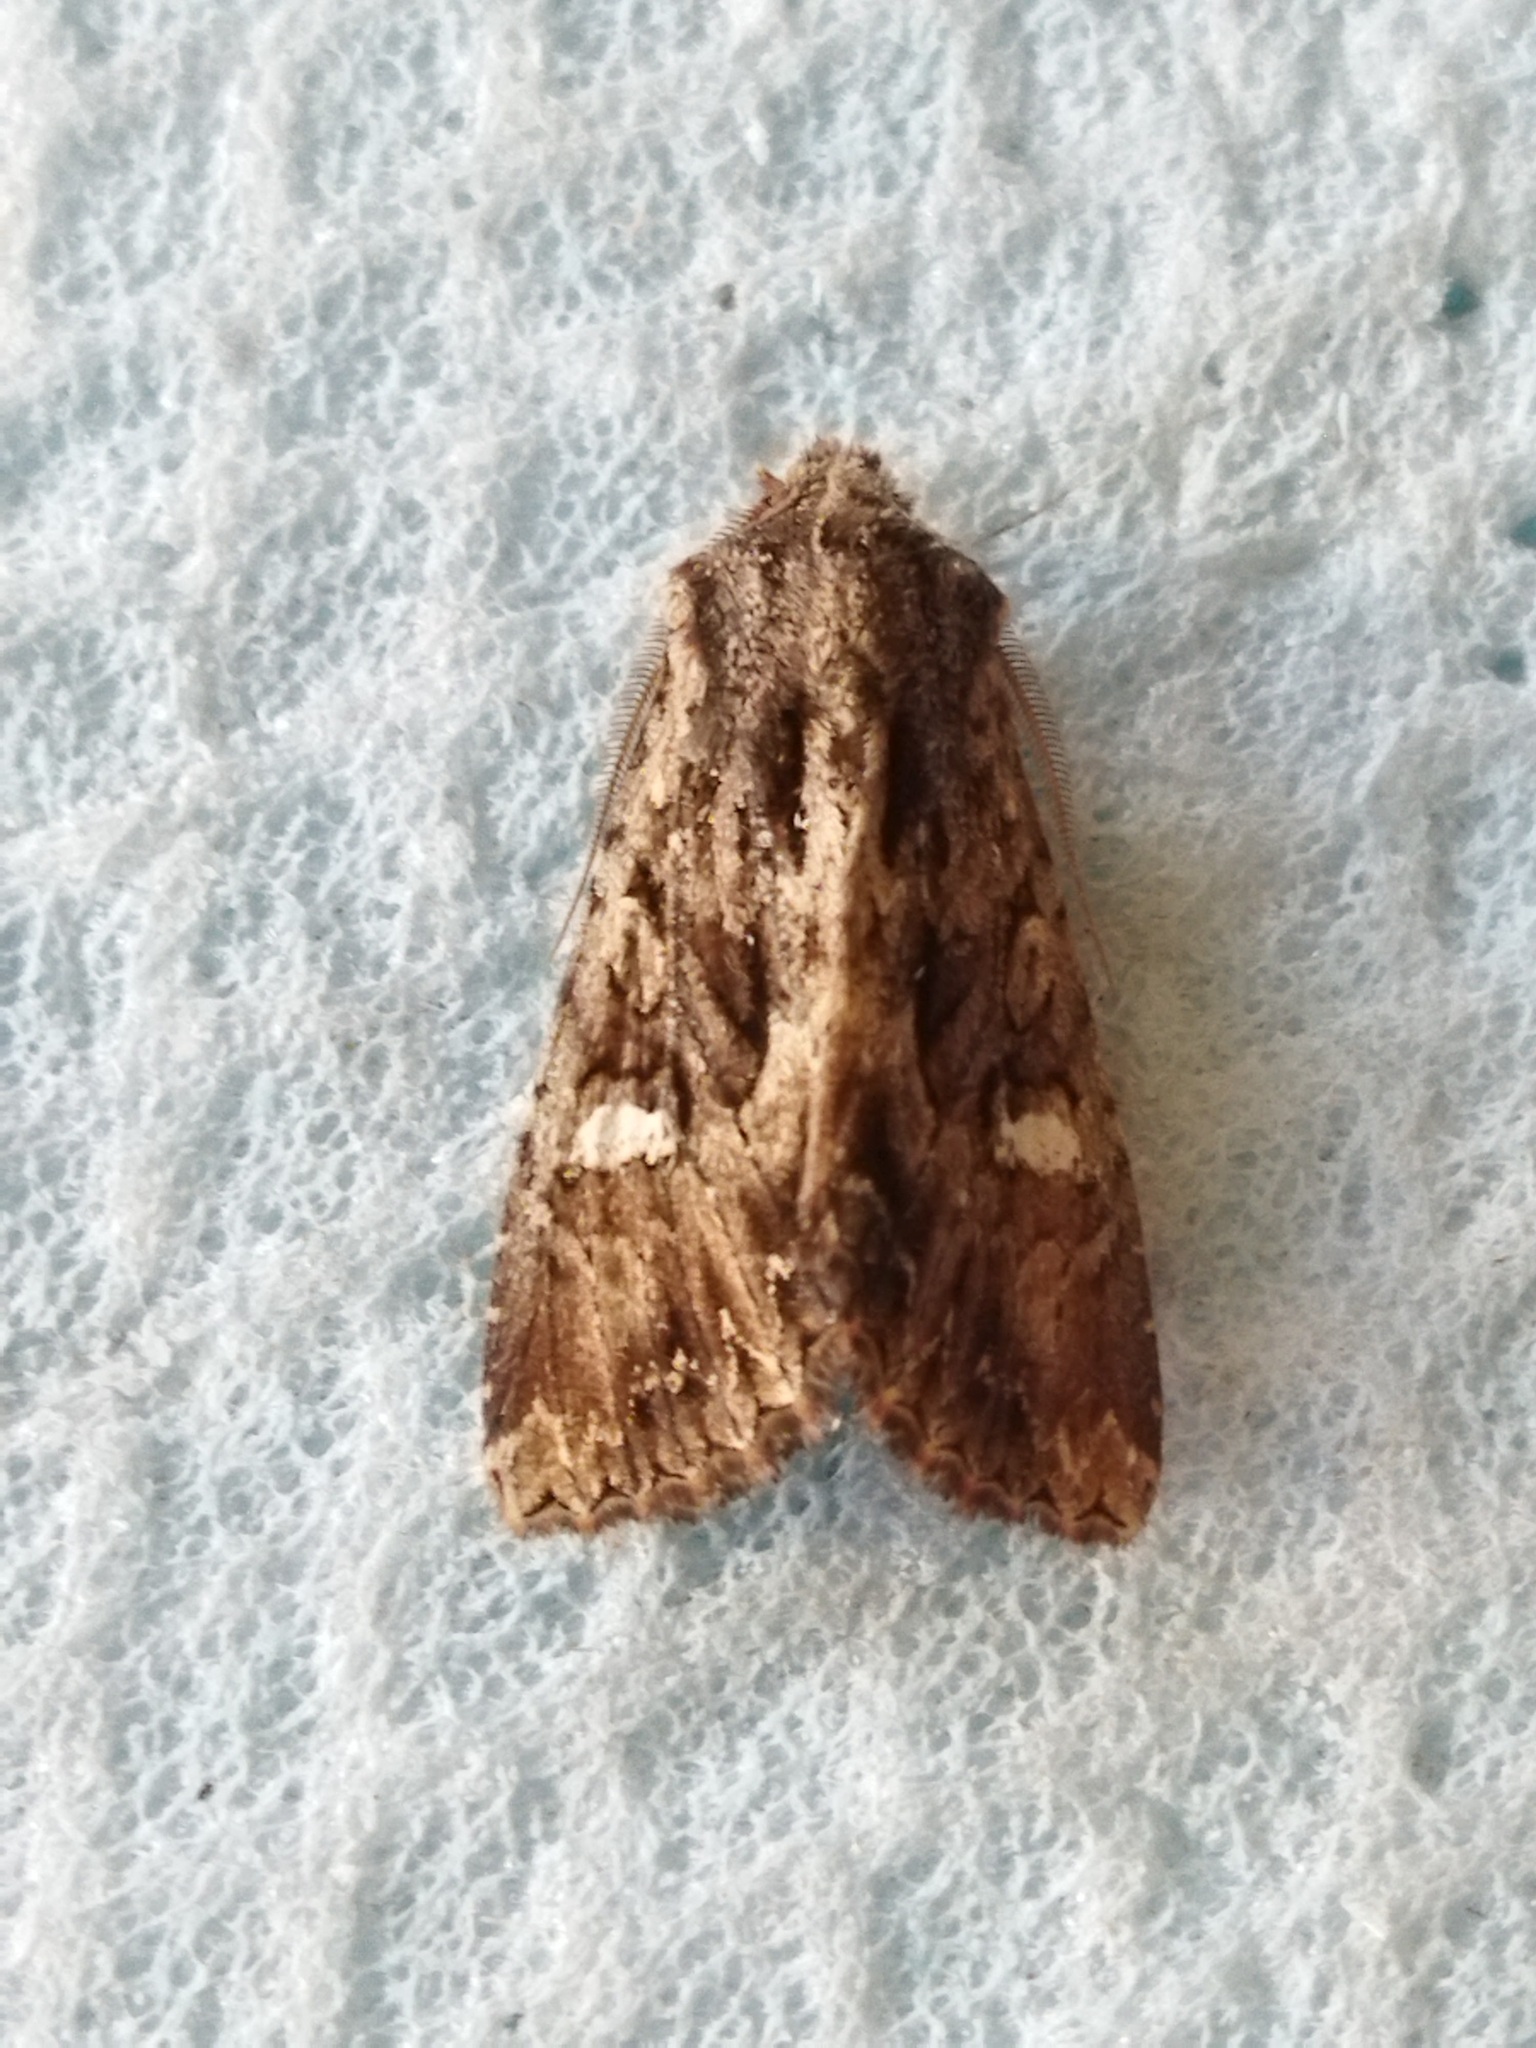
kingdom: Animalia
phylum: Arthropoda
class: Insecta
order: Lepidoptera
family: Noctuidae
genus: Polymixis
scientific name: Polymixis trisignata
